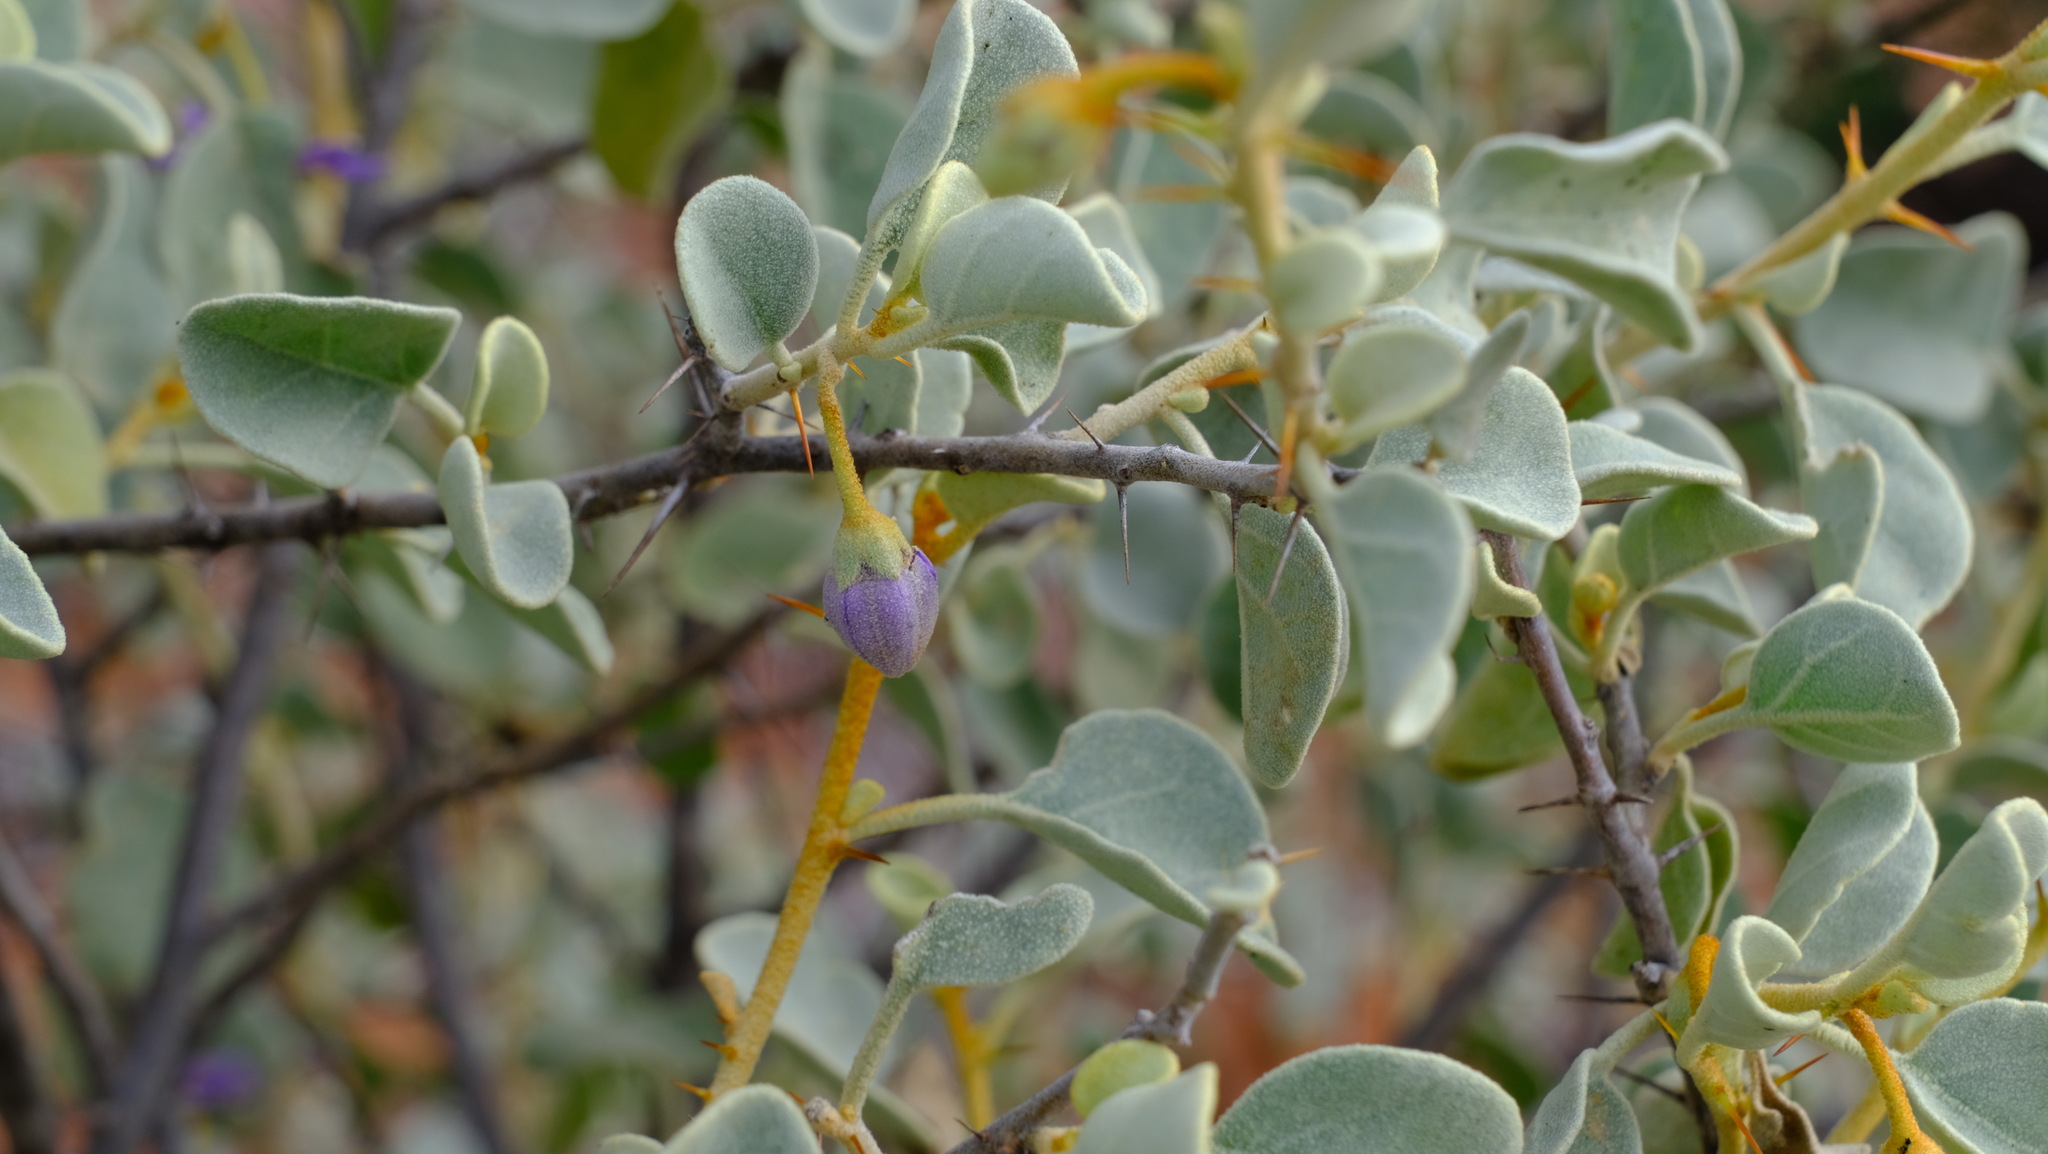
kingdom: Plantae
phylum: Tracheophyta
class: Magnoliopsida
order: Solanales
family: Solanaceae
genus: Solanum
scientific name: Solanum orbiculatum
